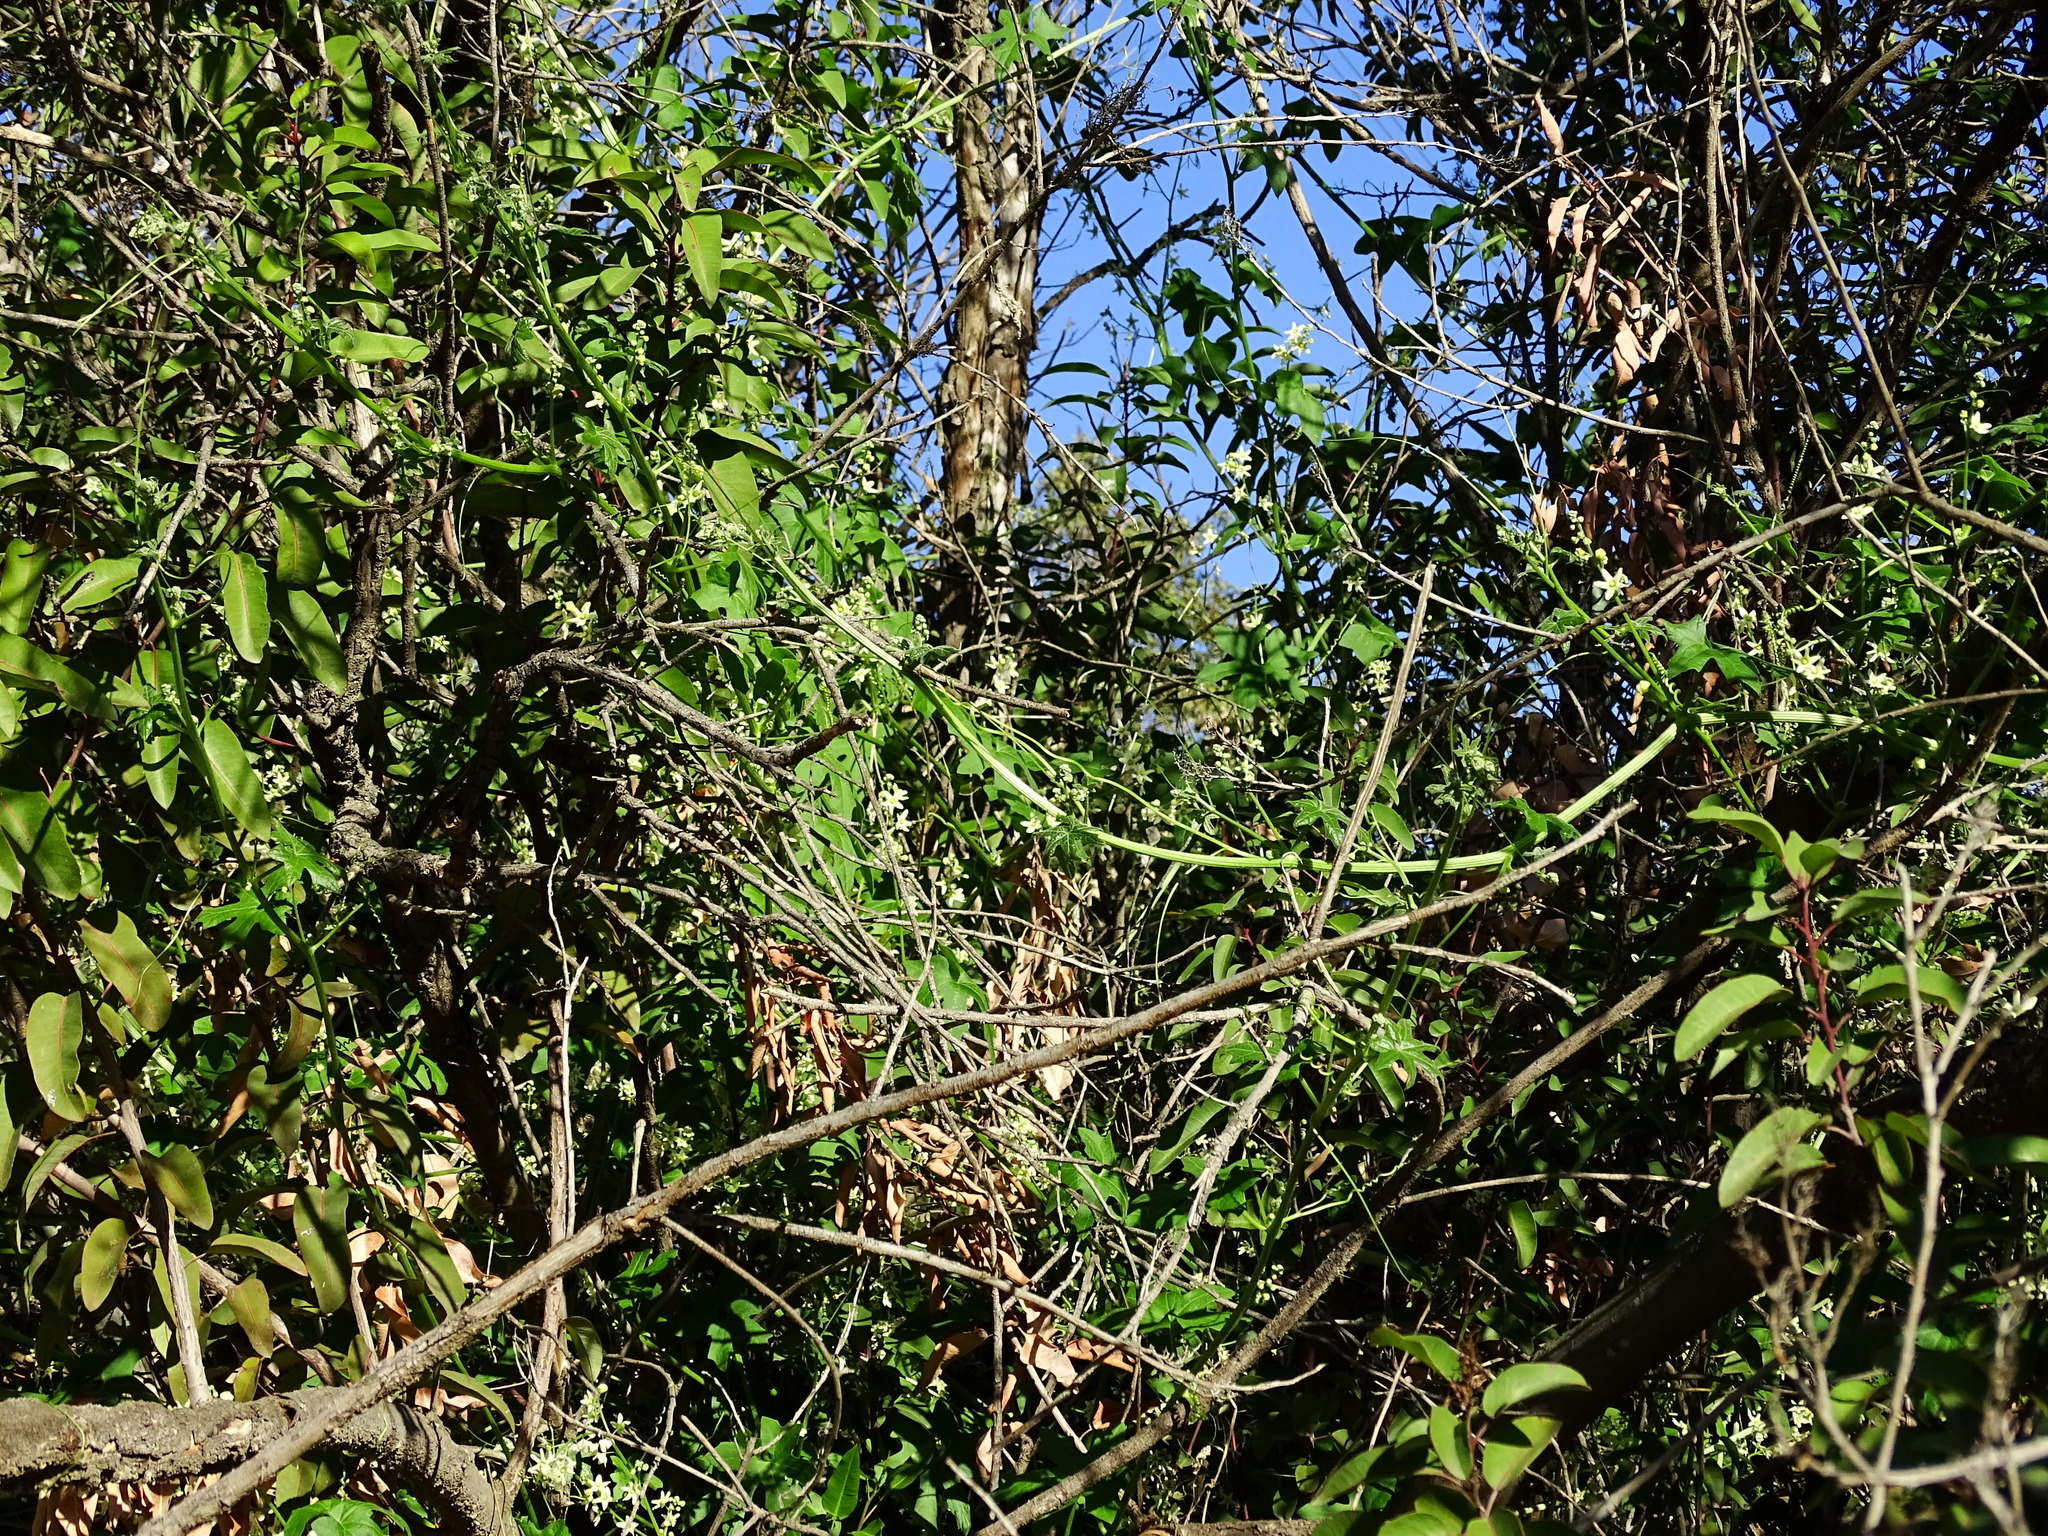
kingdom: Plantae
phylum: Tracheophyta
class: Magnoliopsida
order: Cucurbitales
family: Cucurbitaceae
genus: Marah
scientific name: Marah macrocarpa
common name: Cucamonga manroot
